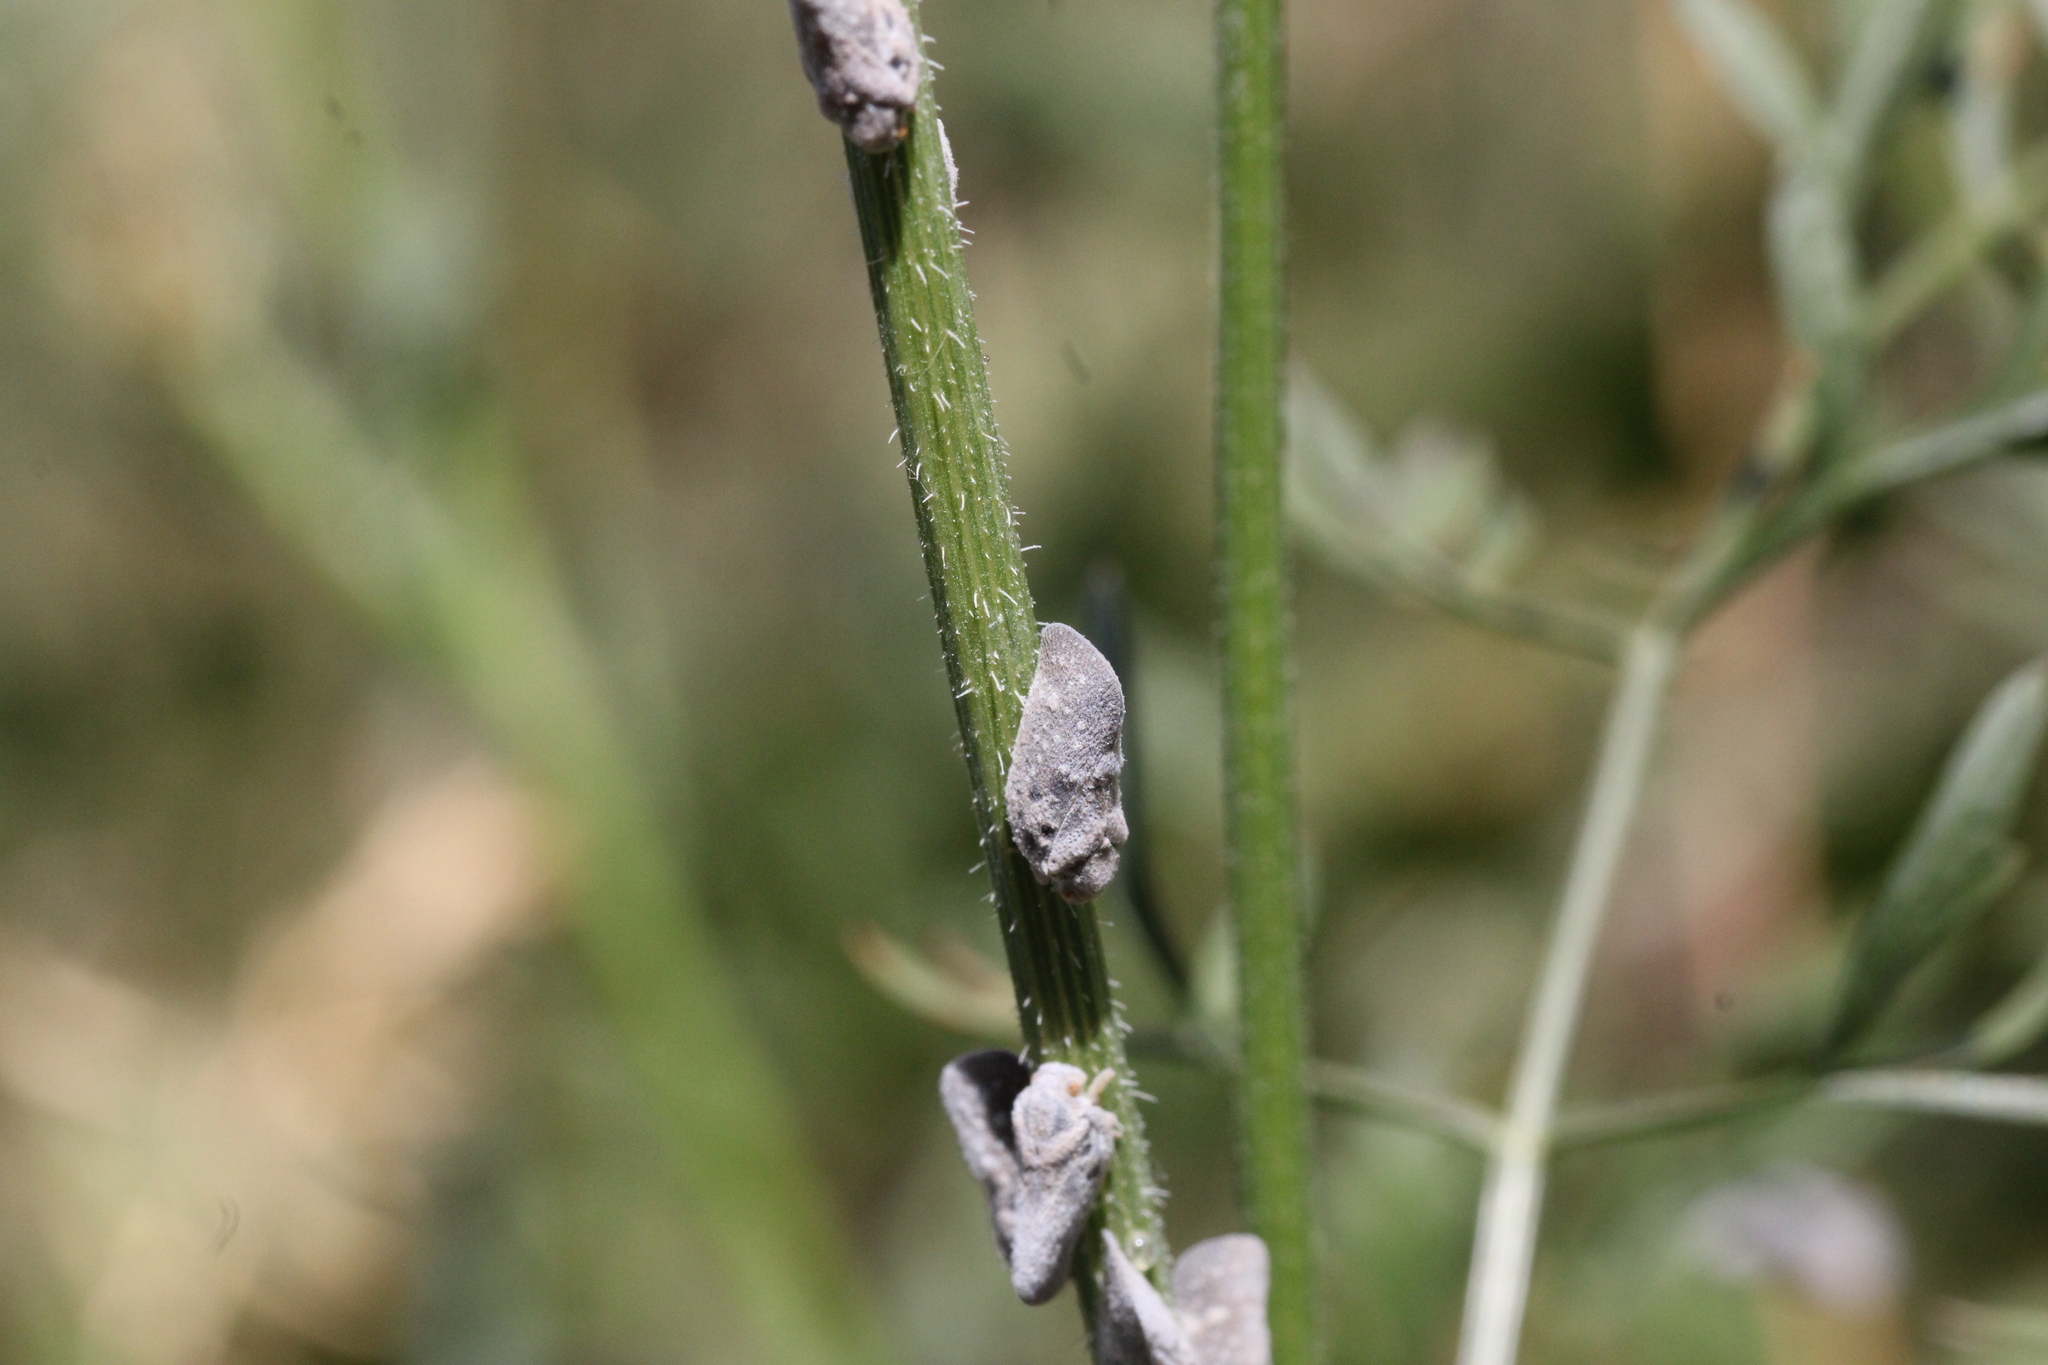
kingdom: Animalia
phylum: Arthropoda
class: Insecta
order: Hemiptera
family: Flatidae
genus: Metcalfa
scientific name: Metcalfa pruinosa
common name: Citrus flatid planthopper
